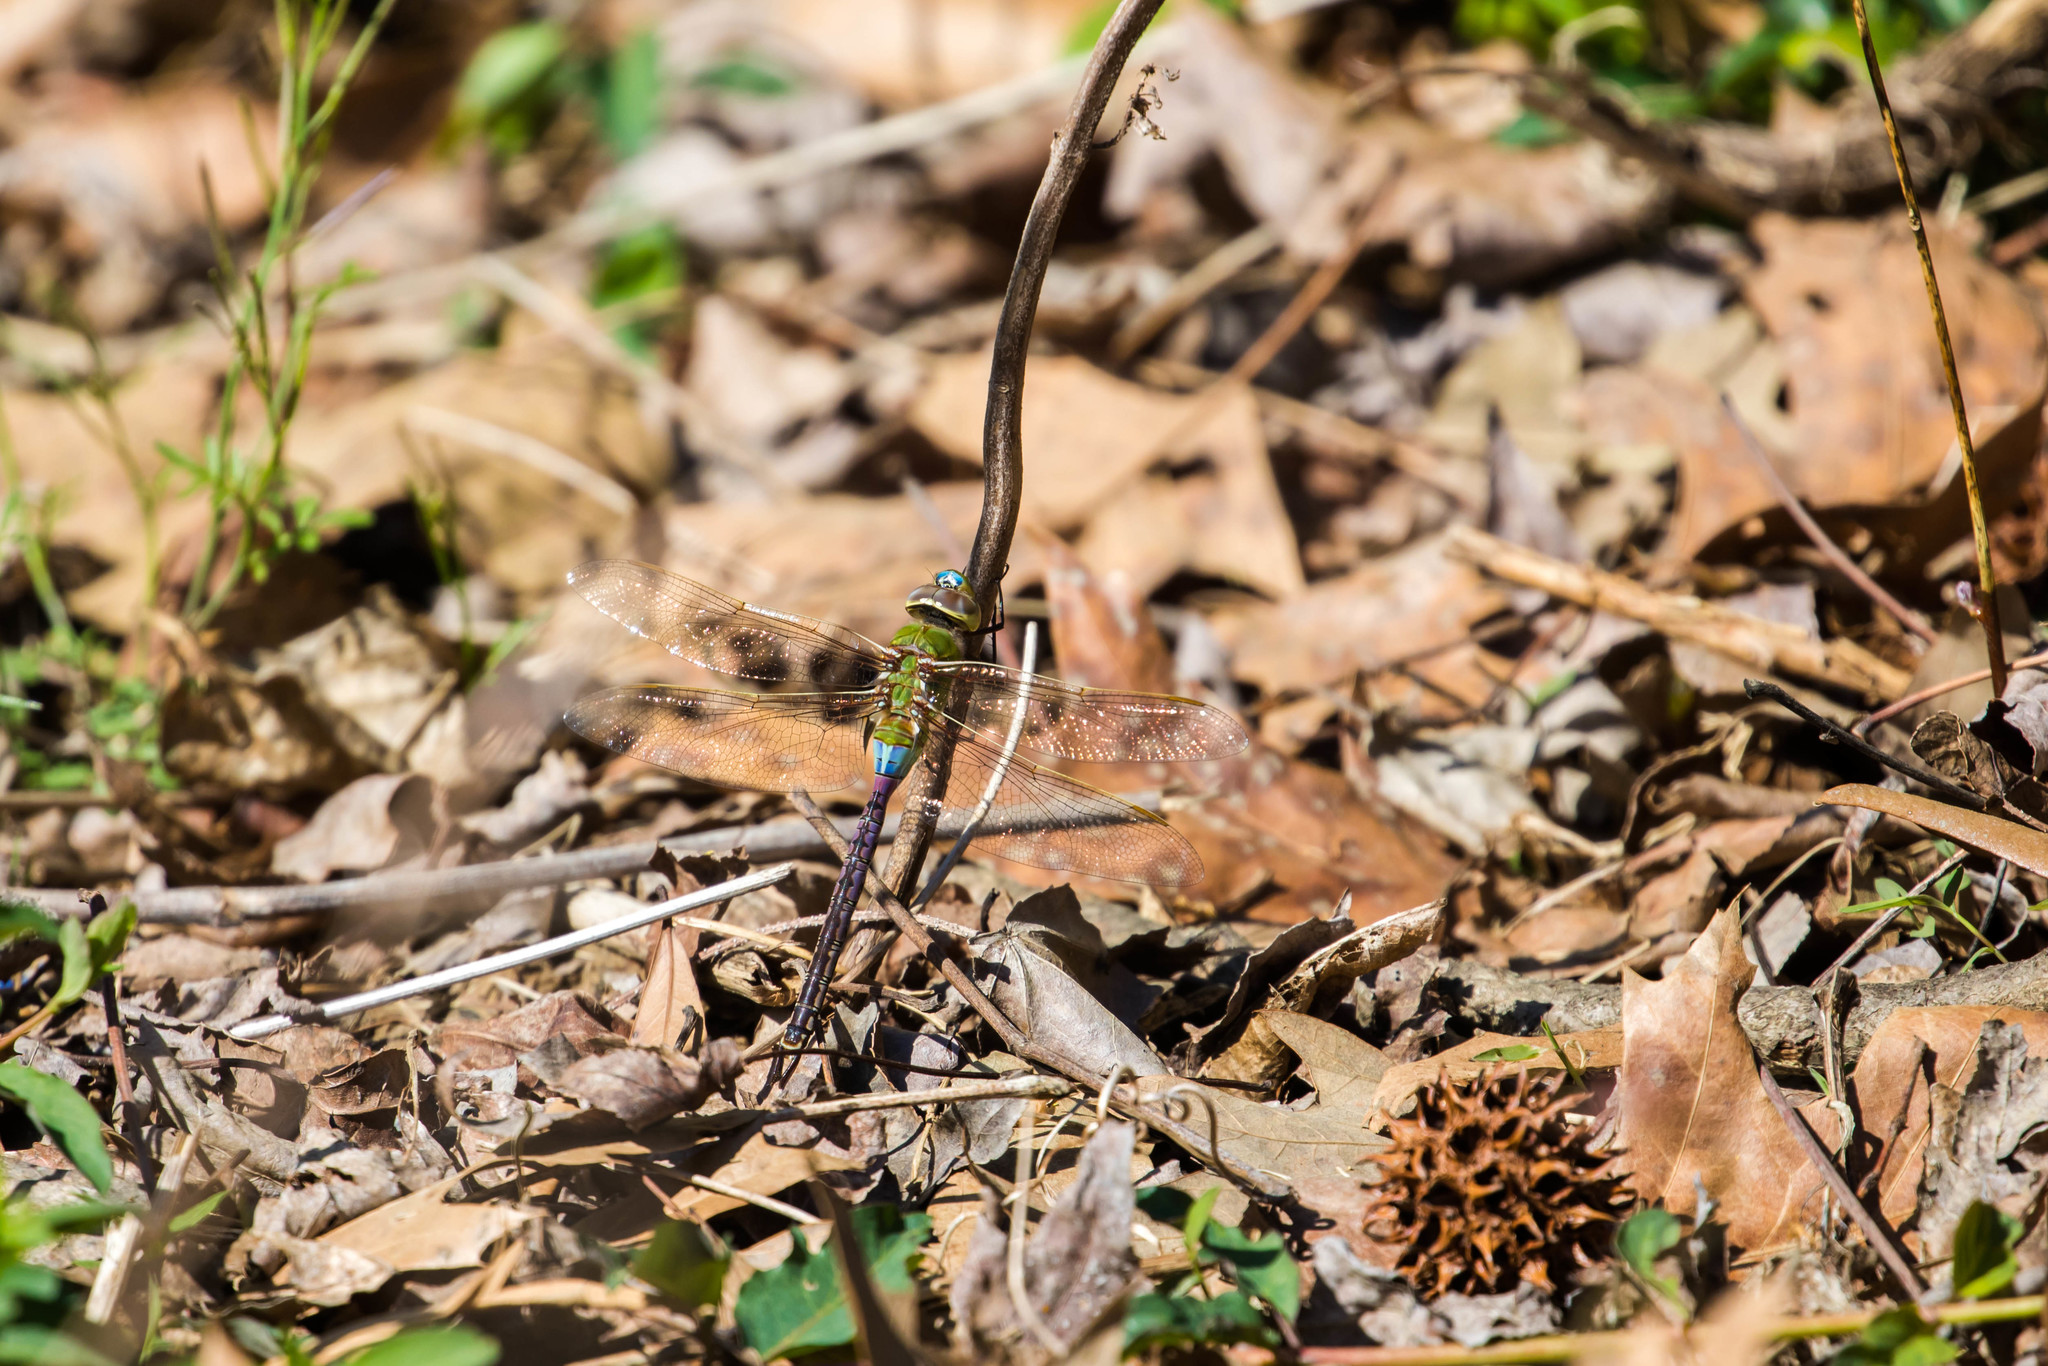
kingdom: Animalia
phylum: Arthropoda
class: Insecta
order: Odonata
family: Aeshnidae
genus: Anax
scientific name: Anax junius
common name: Common green darner
